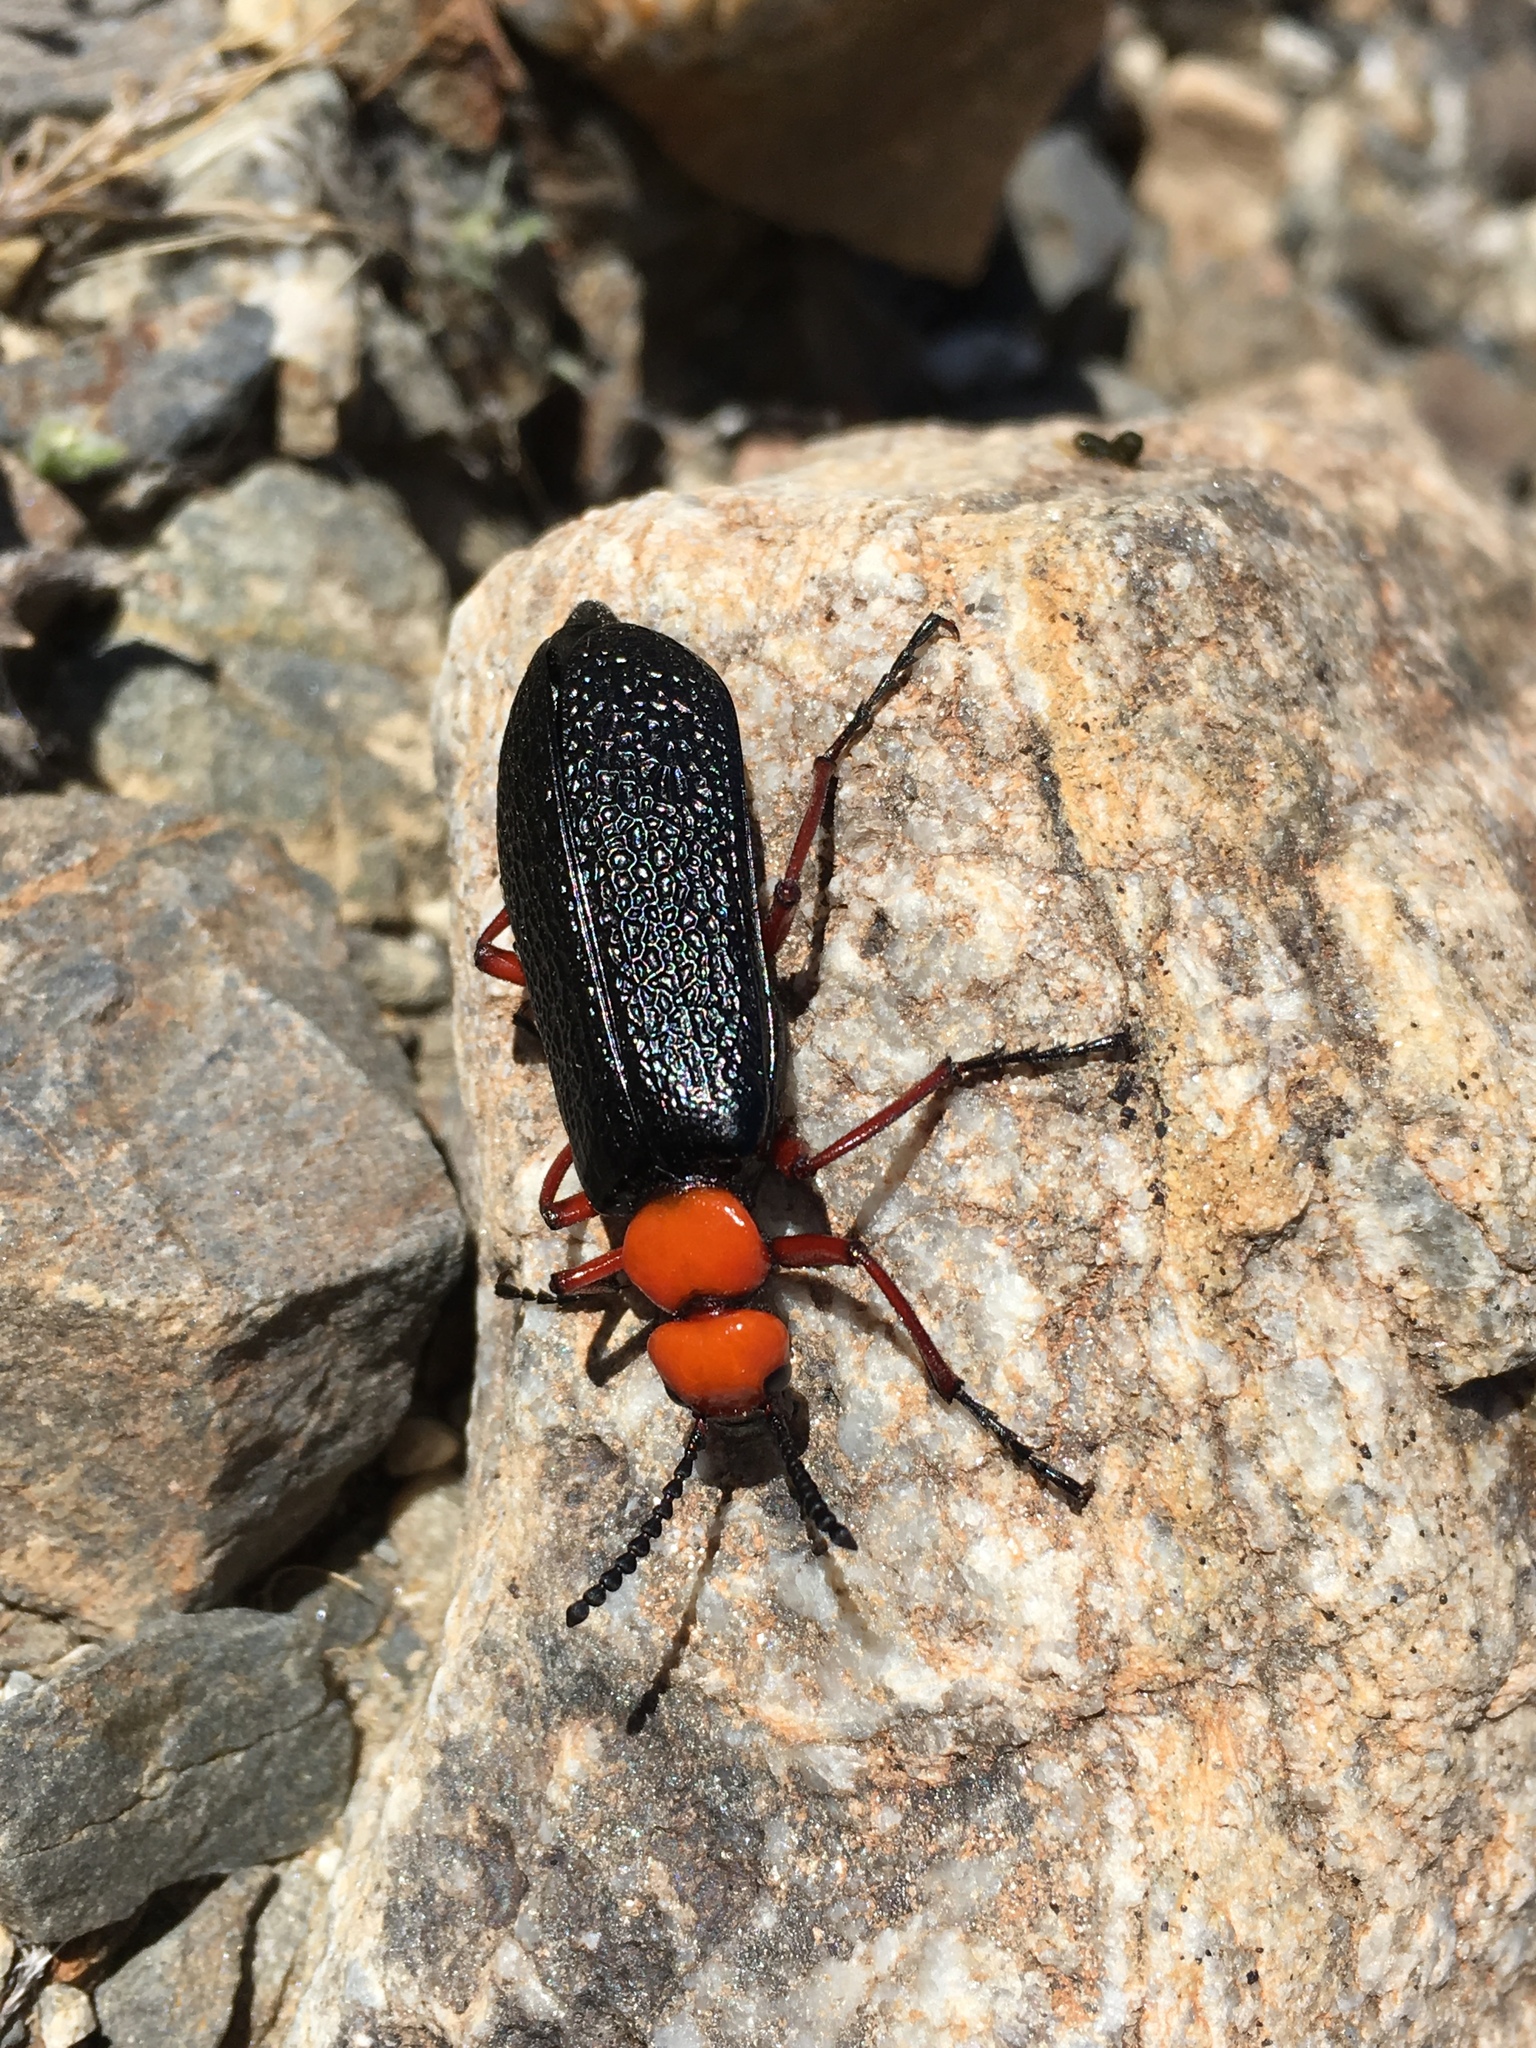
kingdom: Animalia
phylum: Arthropoda
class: Insecta
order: Coleoptera
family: Meloidae
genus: Lytta
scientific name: Lytta magister
